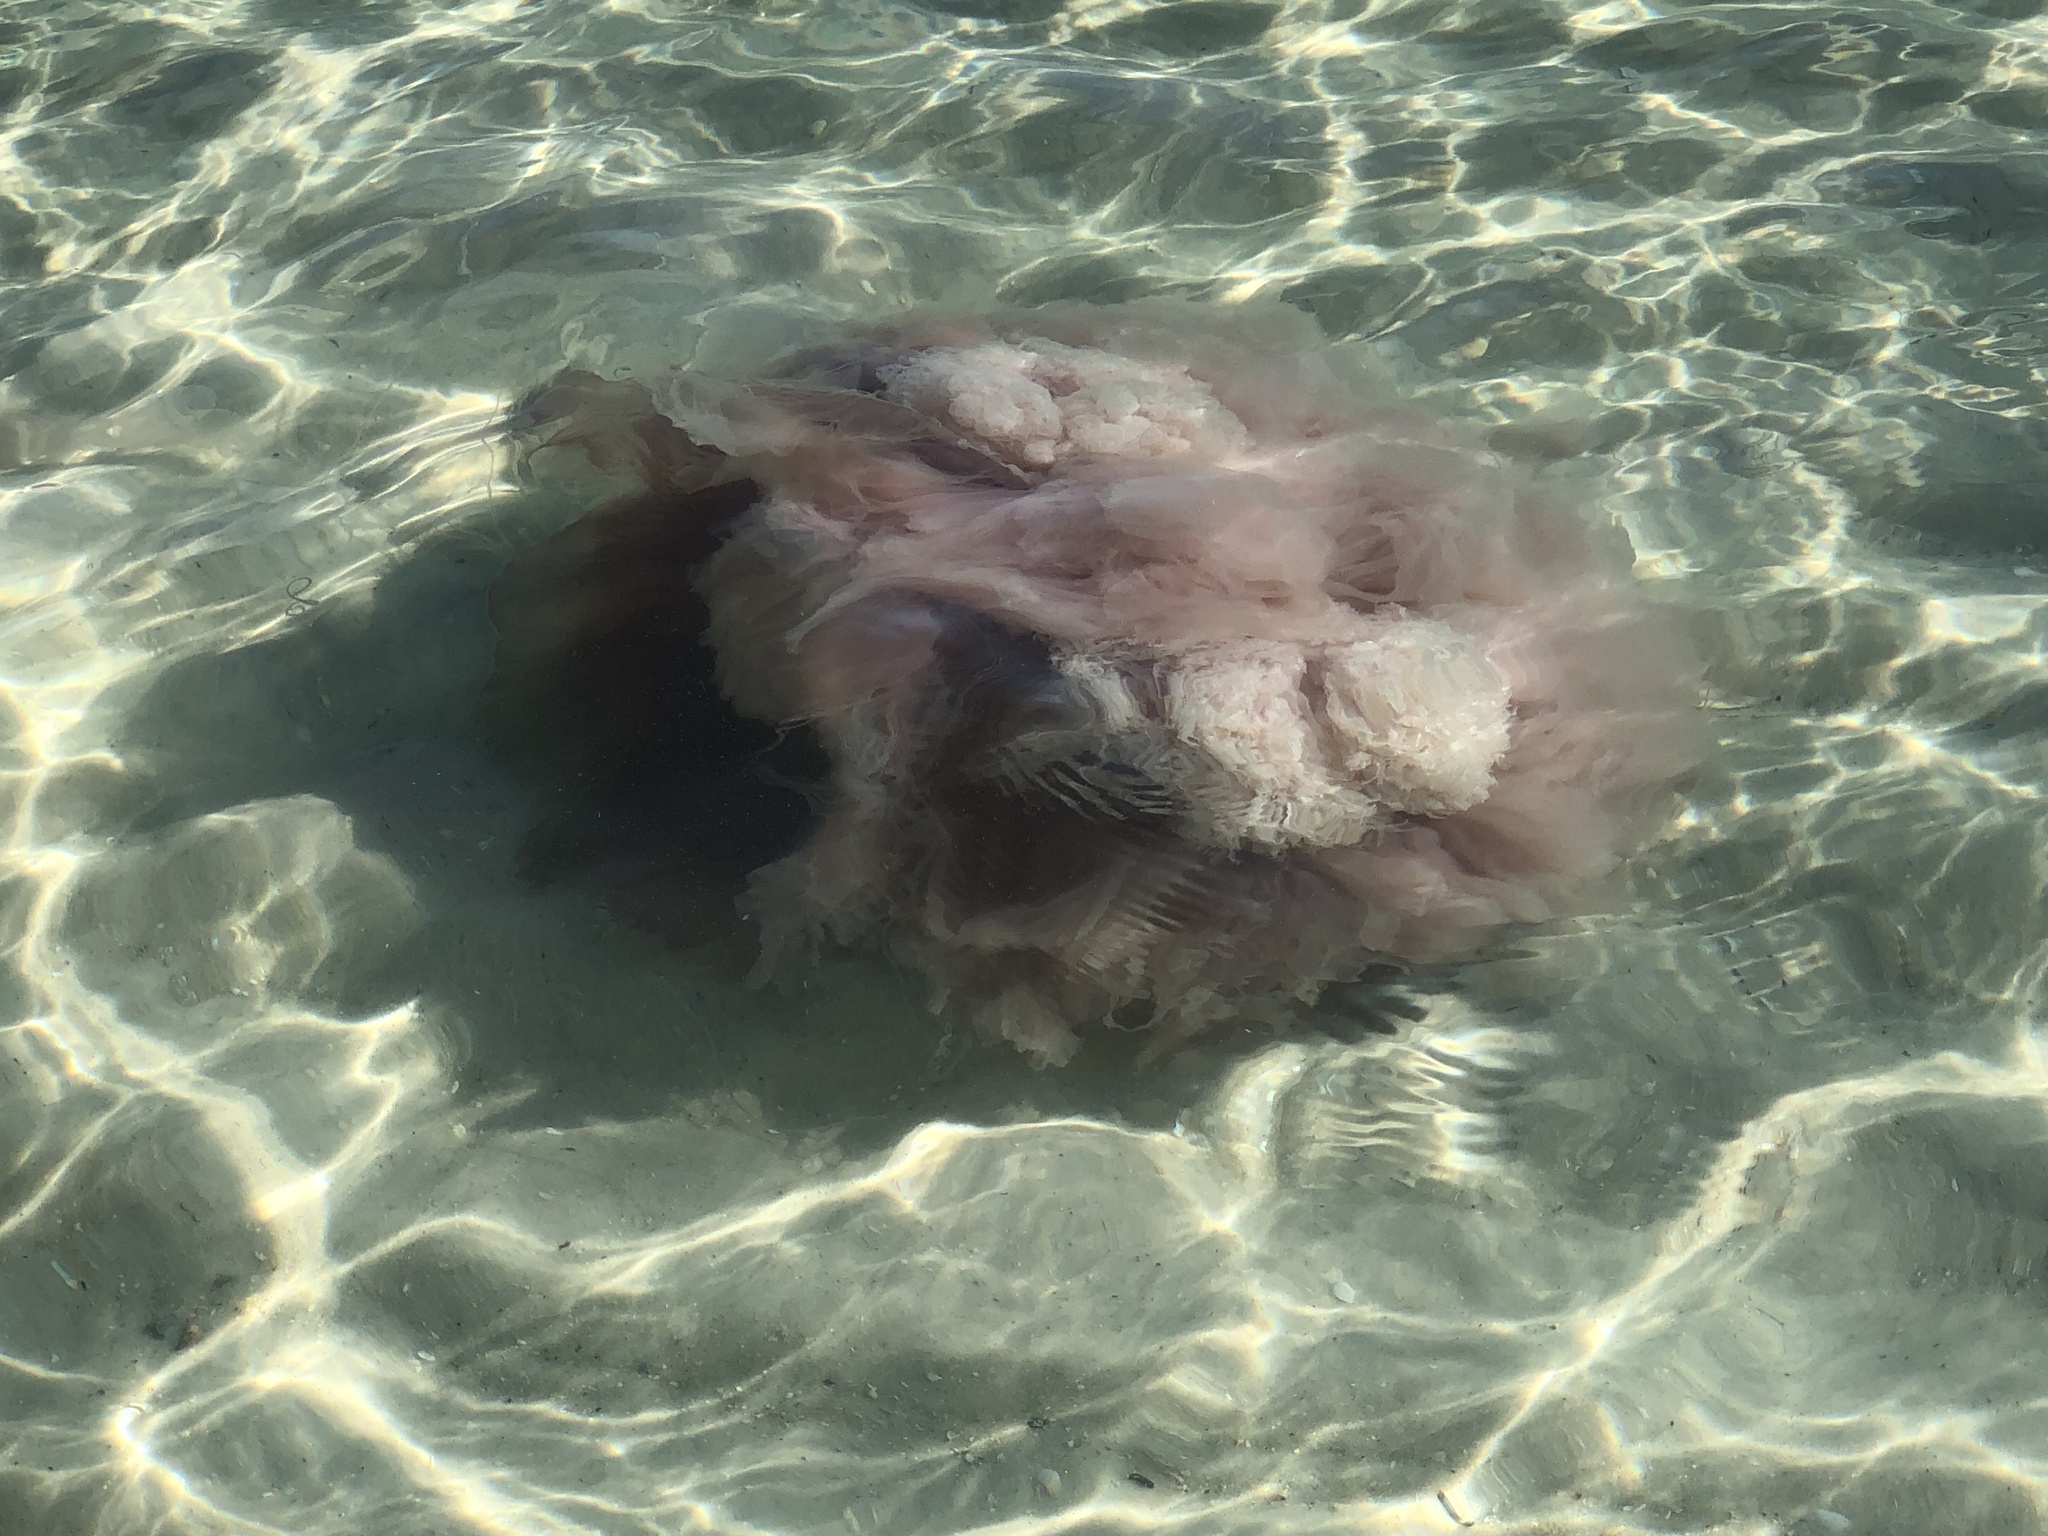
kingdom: Animalia
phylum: Cnidaria
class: Scyphozoa
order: Semaeostomeae
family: Drymonematidae
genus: Drymonema
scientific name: Drymonema larsoni
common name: Larson's jellyfish
